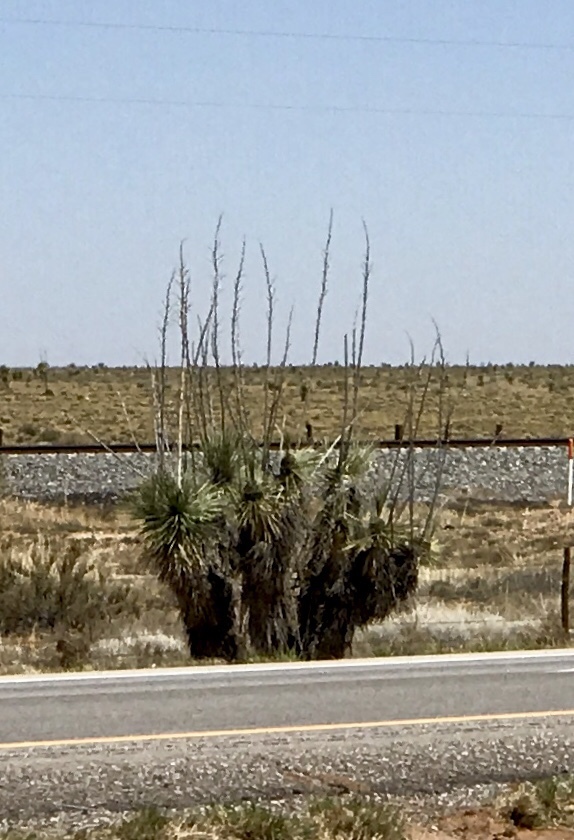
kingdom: Plantae
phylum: Tracheophyta
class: Liliopsida
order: Asparagales
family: Asparagaceae
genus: Yucca
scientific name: Yucca elata
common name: Palmella
